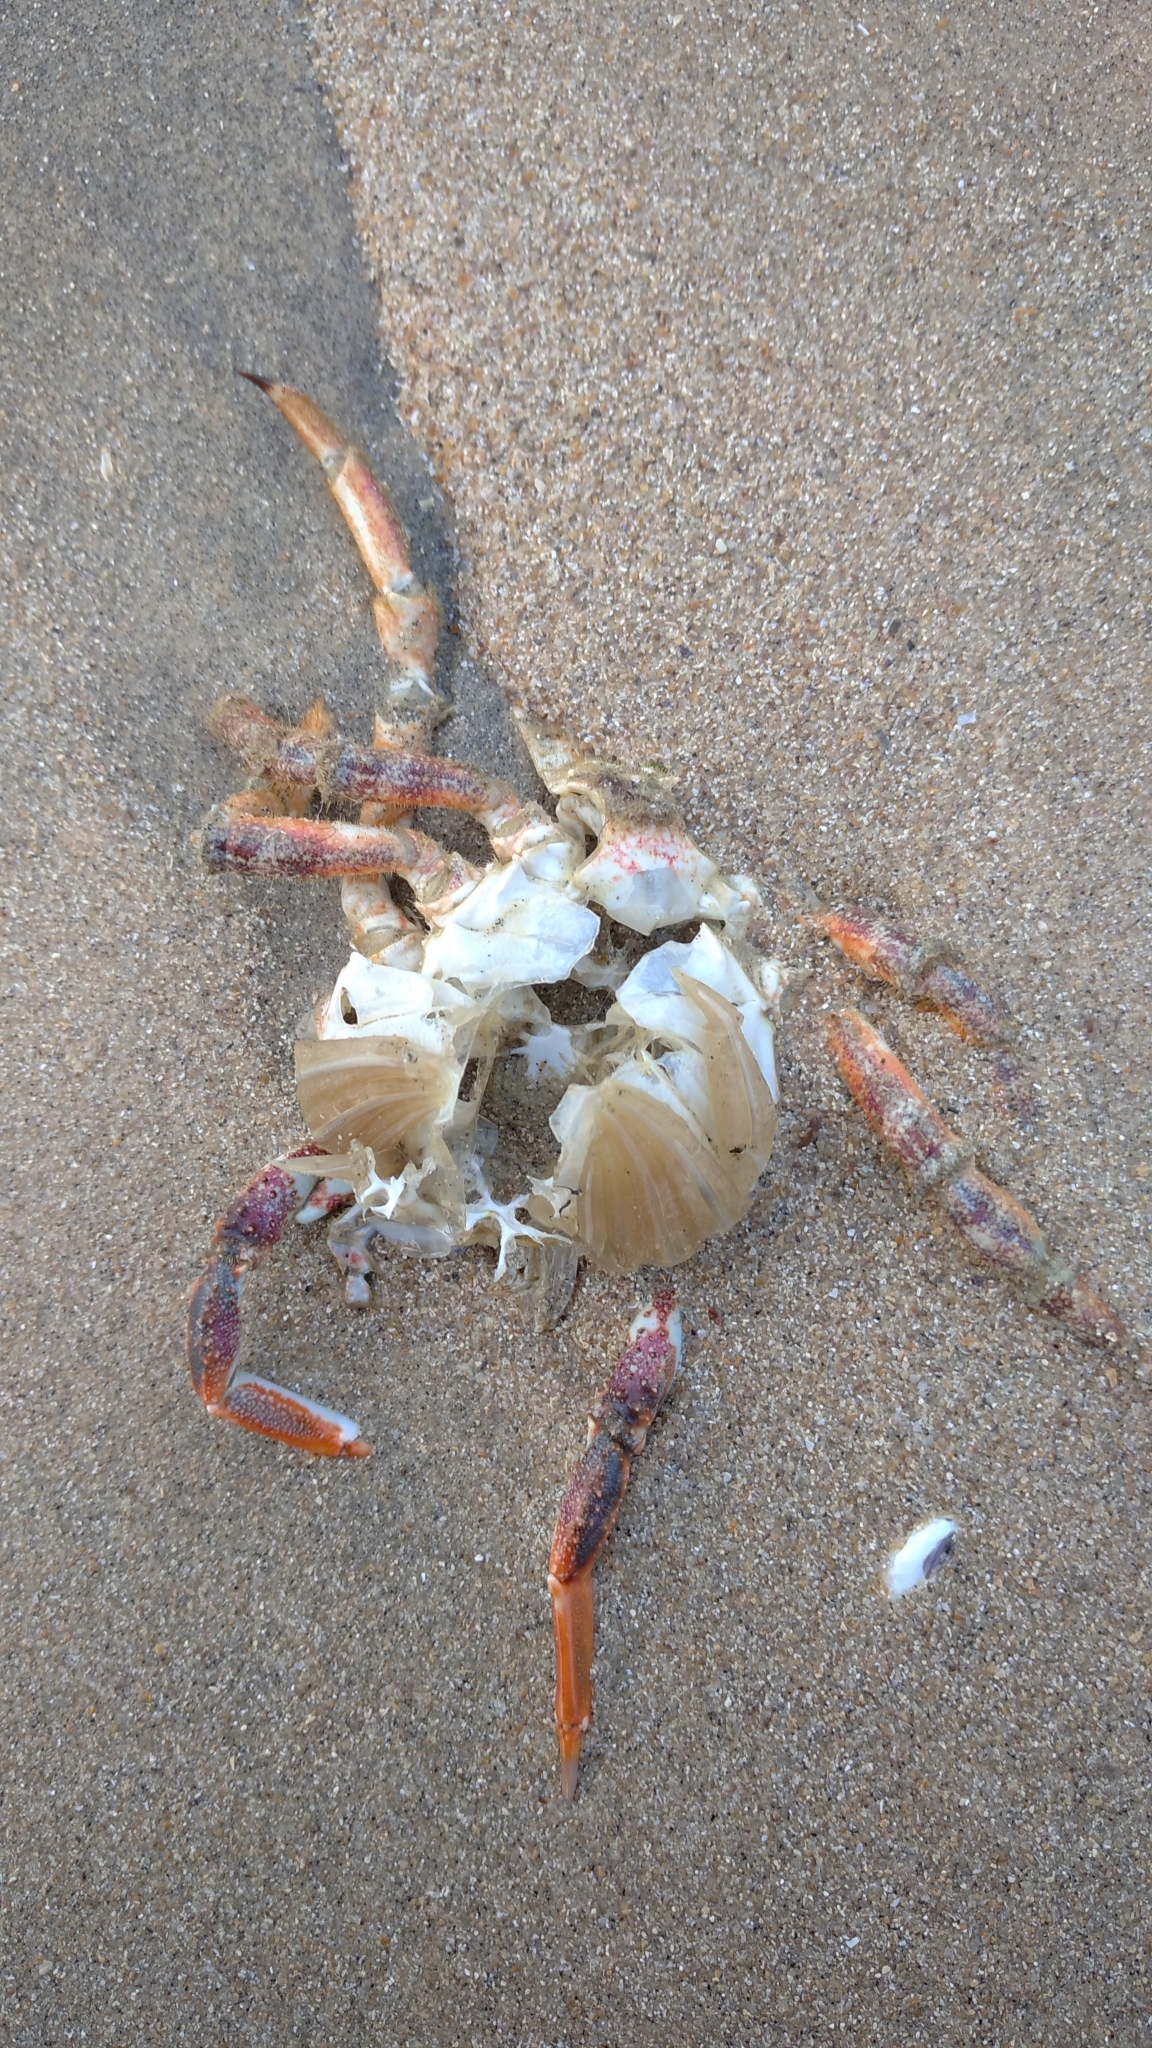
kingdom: Animalia
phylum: Arthropoda
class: Malacostraca
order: Decapoda
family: Majidae
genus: Maja
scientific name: Maja brachydactyla
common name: Common spider crab
